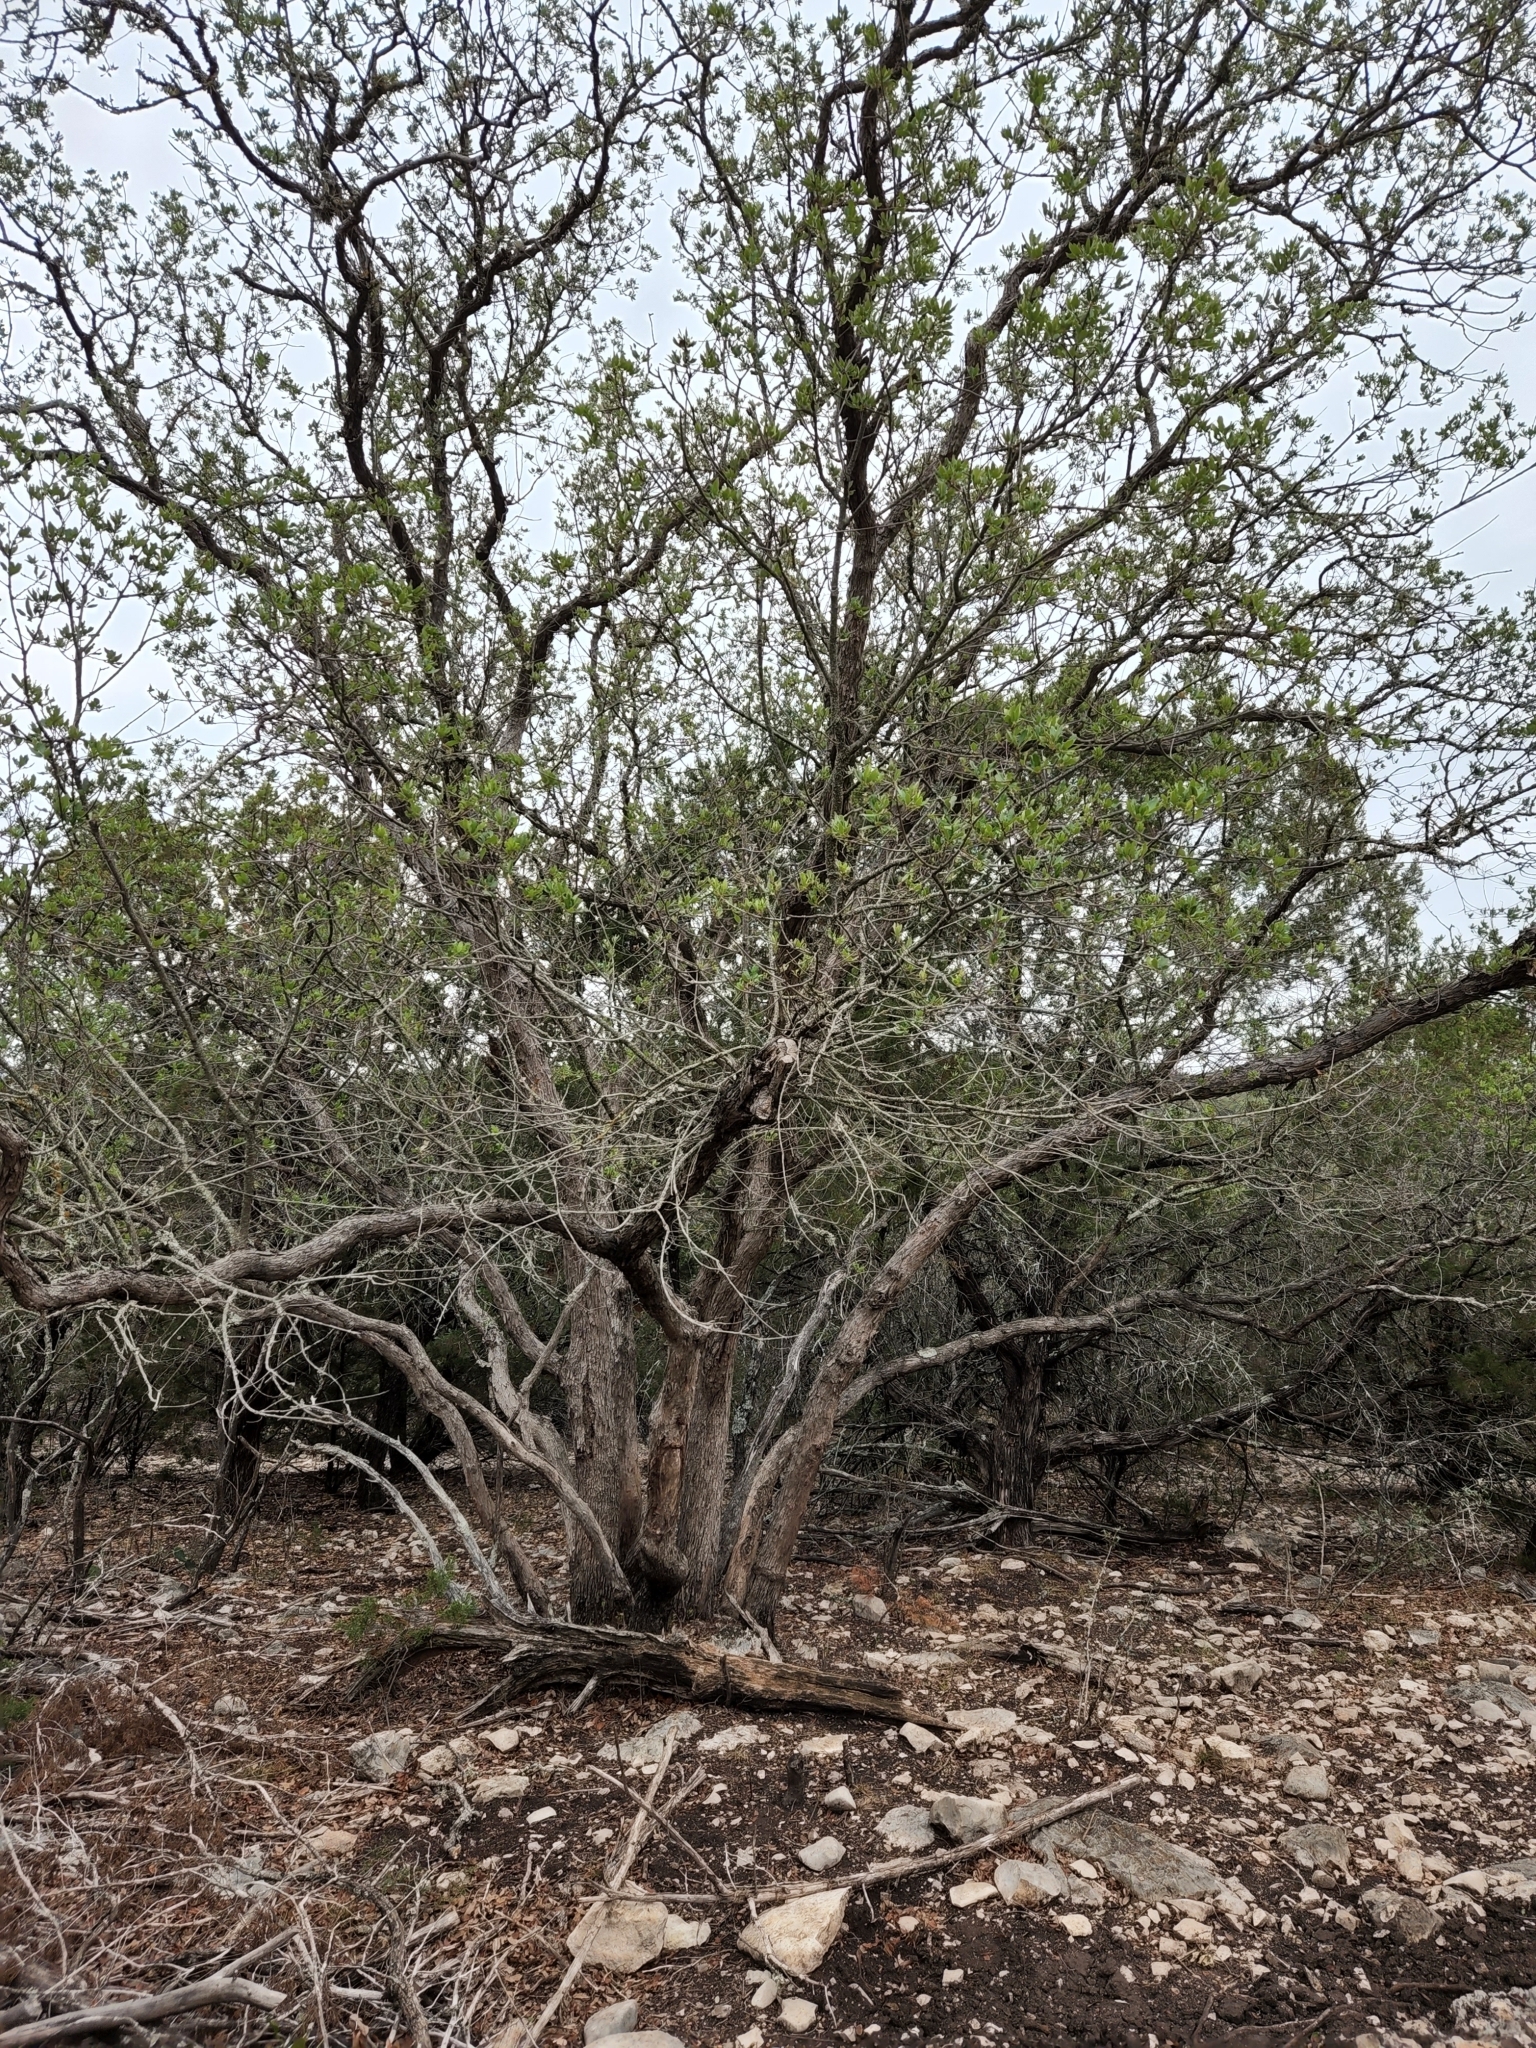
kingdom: Plantae
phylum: Tracheophyta
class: Magnoliopsida
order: Fagales
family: Fagaceae
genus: Quercus
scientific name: Quercus vaseyana
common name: Sandpaper oak
